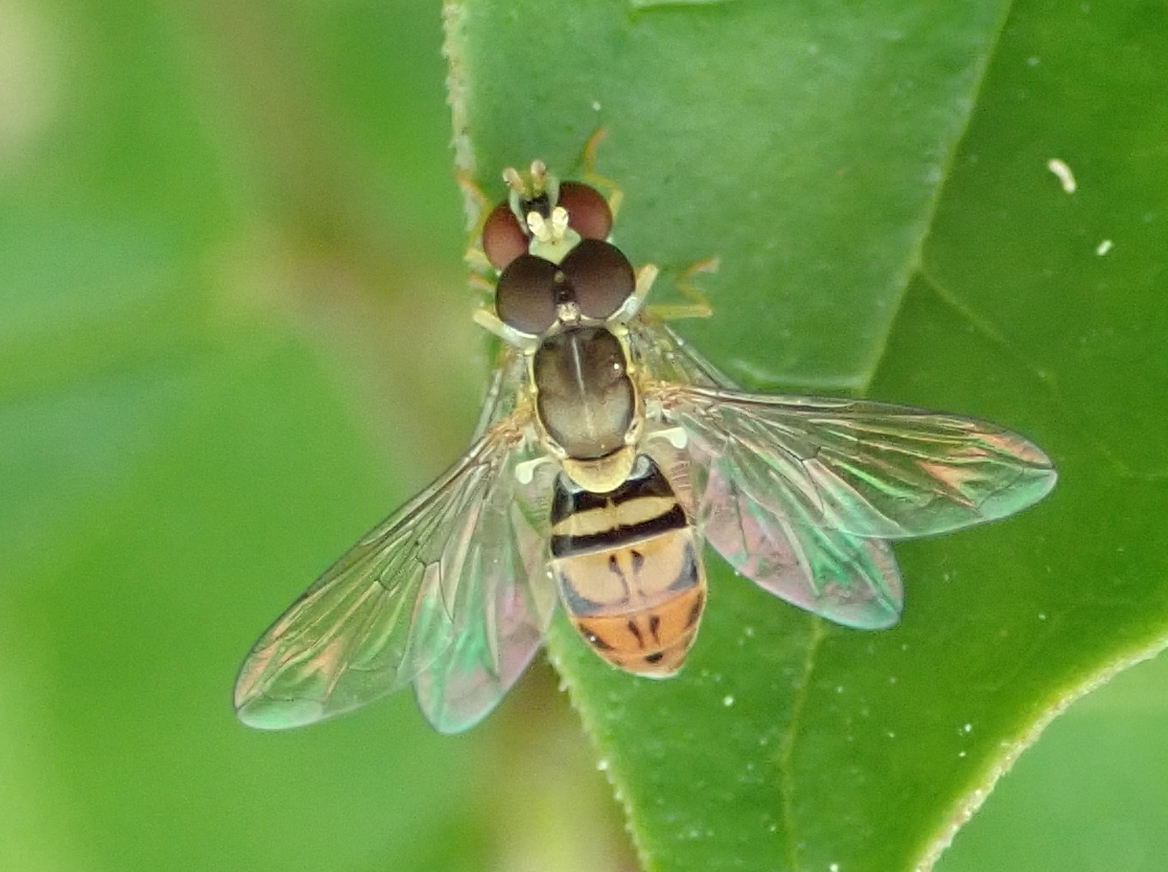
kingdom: Animalia
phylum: Arthropoda
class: Insecta
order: Diptera
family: Syrphidae
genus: Toxomerus
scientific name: Toxomerus marginatus
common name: Syrphid fly
